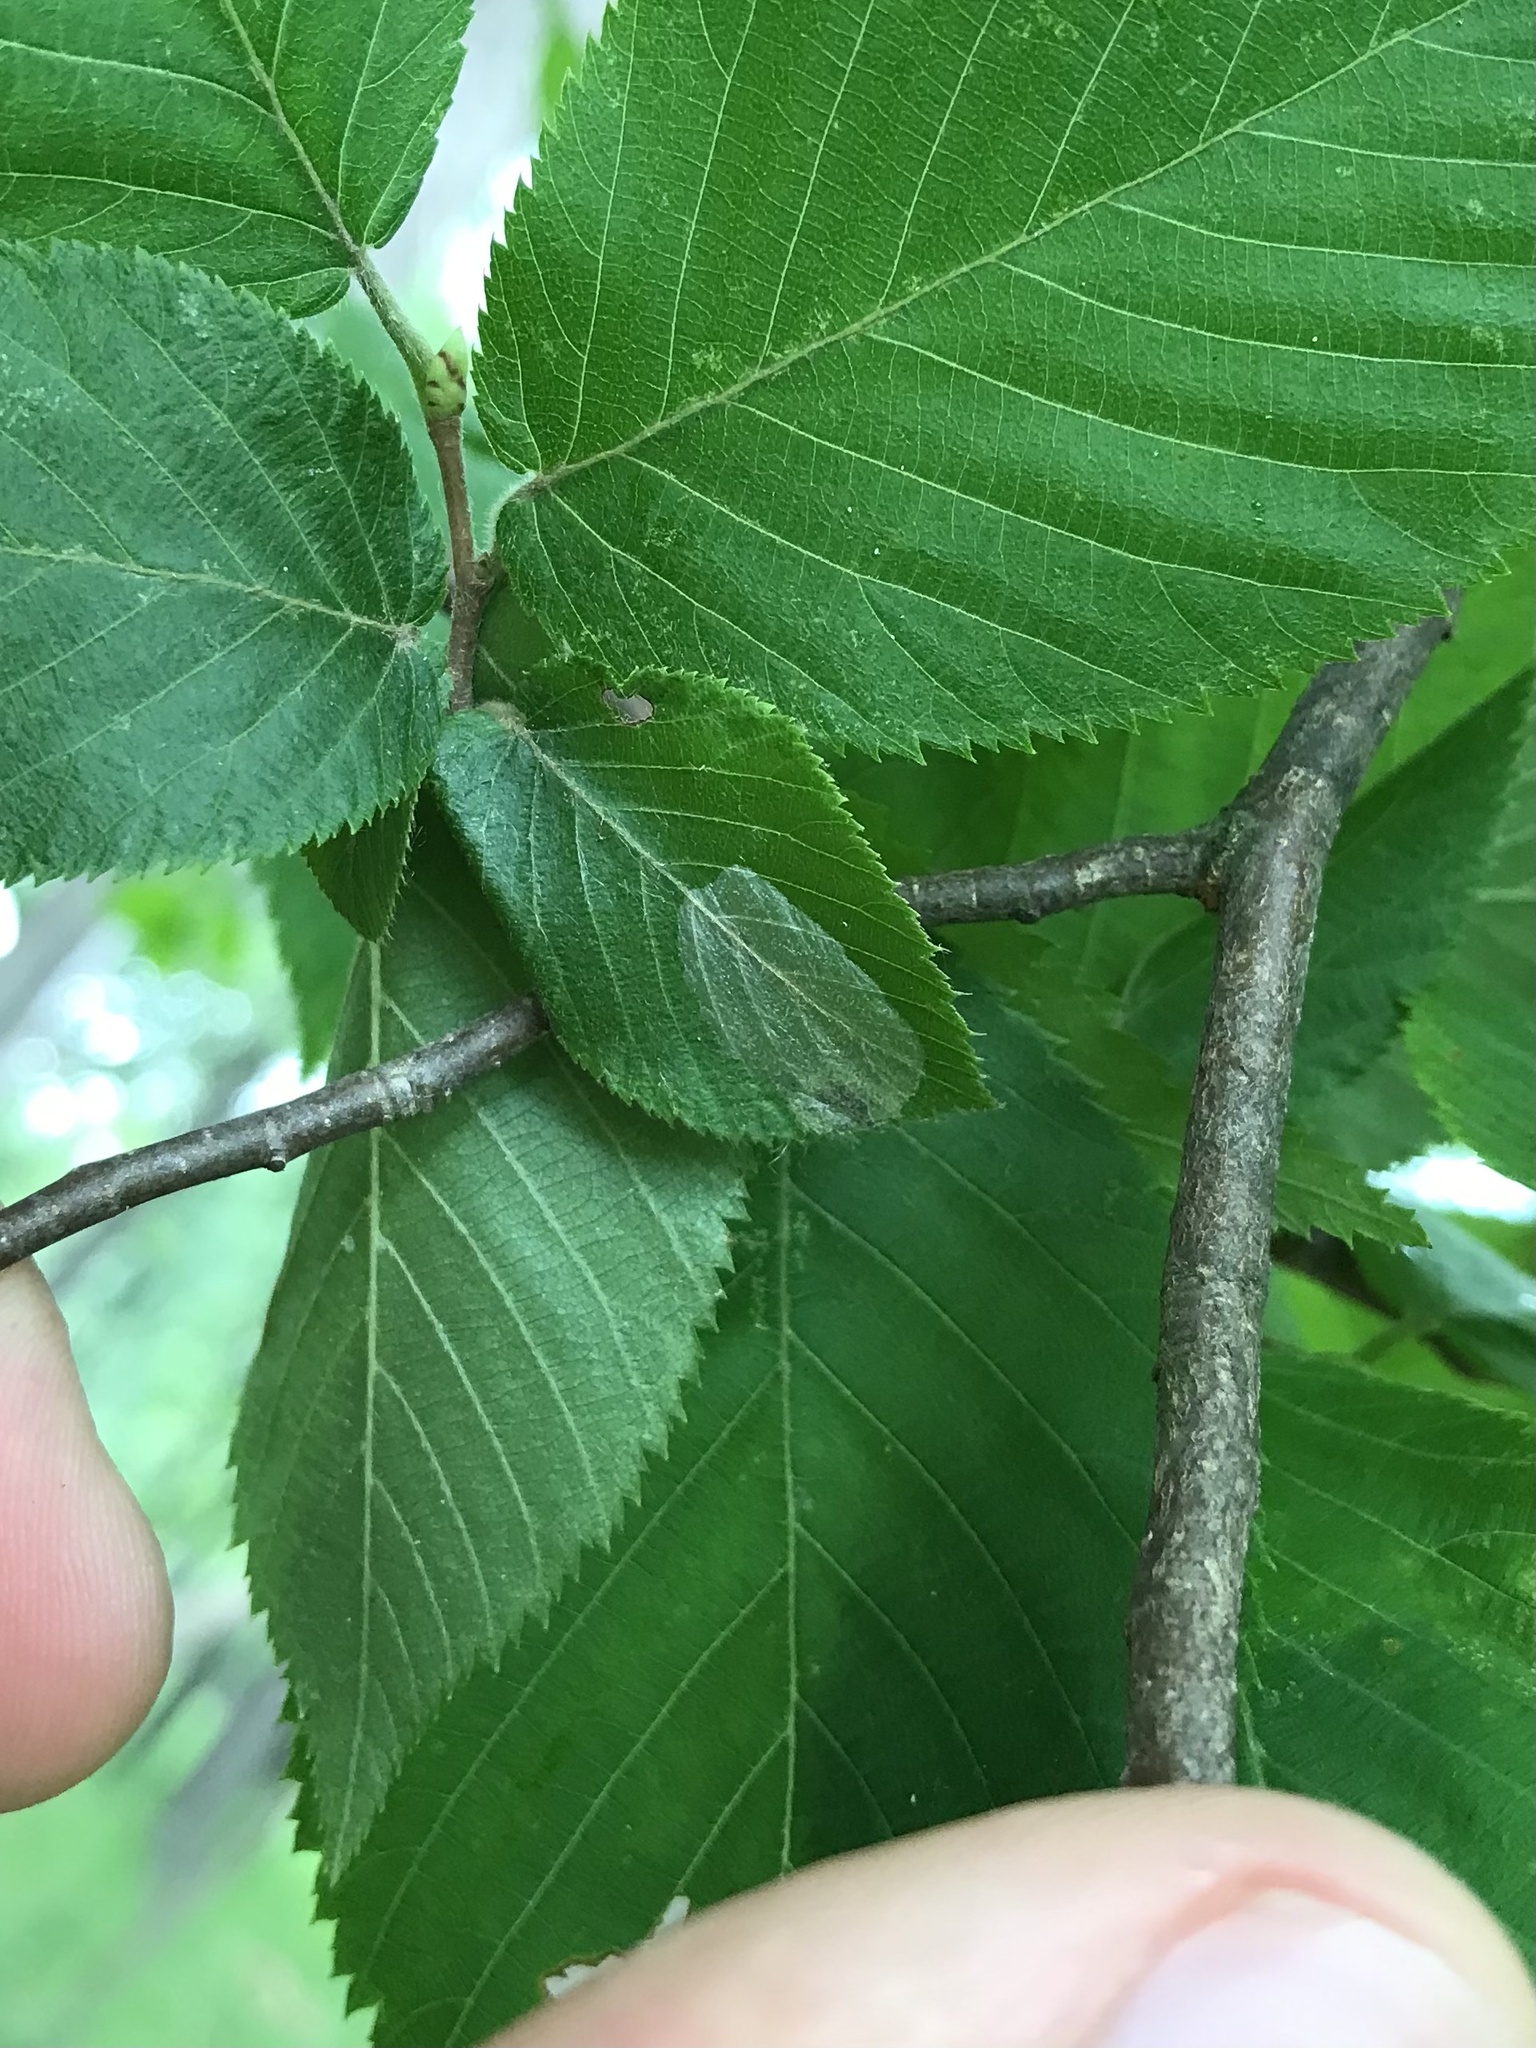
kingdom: Animalia
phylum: Arthropoda
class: Insecta
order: Lepidoptera
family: Gracillariidae
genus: Phyllonorycter
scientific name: Phyllonorycter tritaenianella
